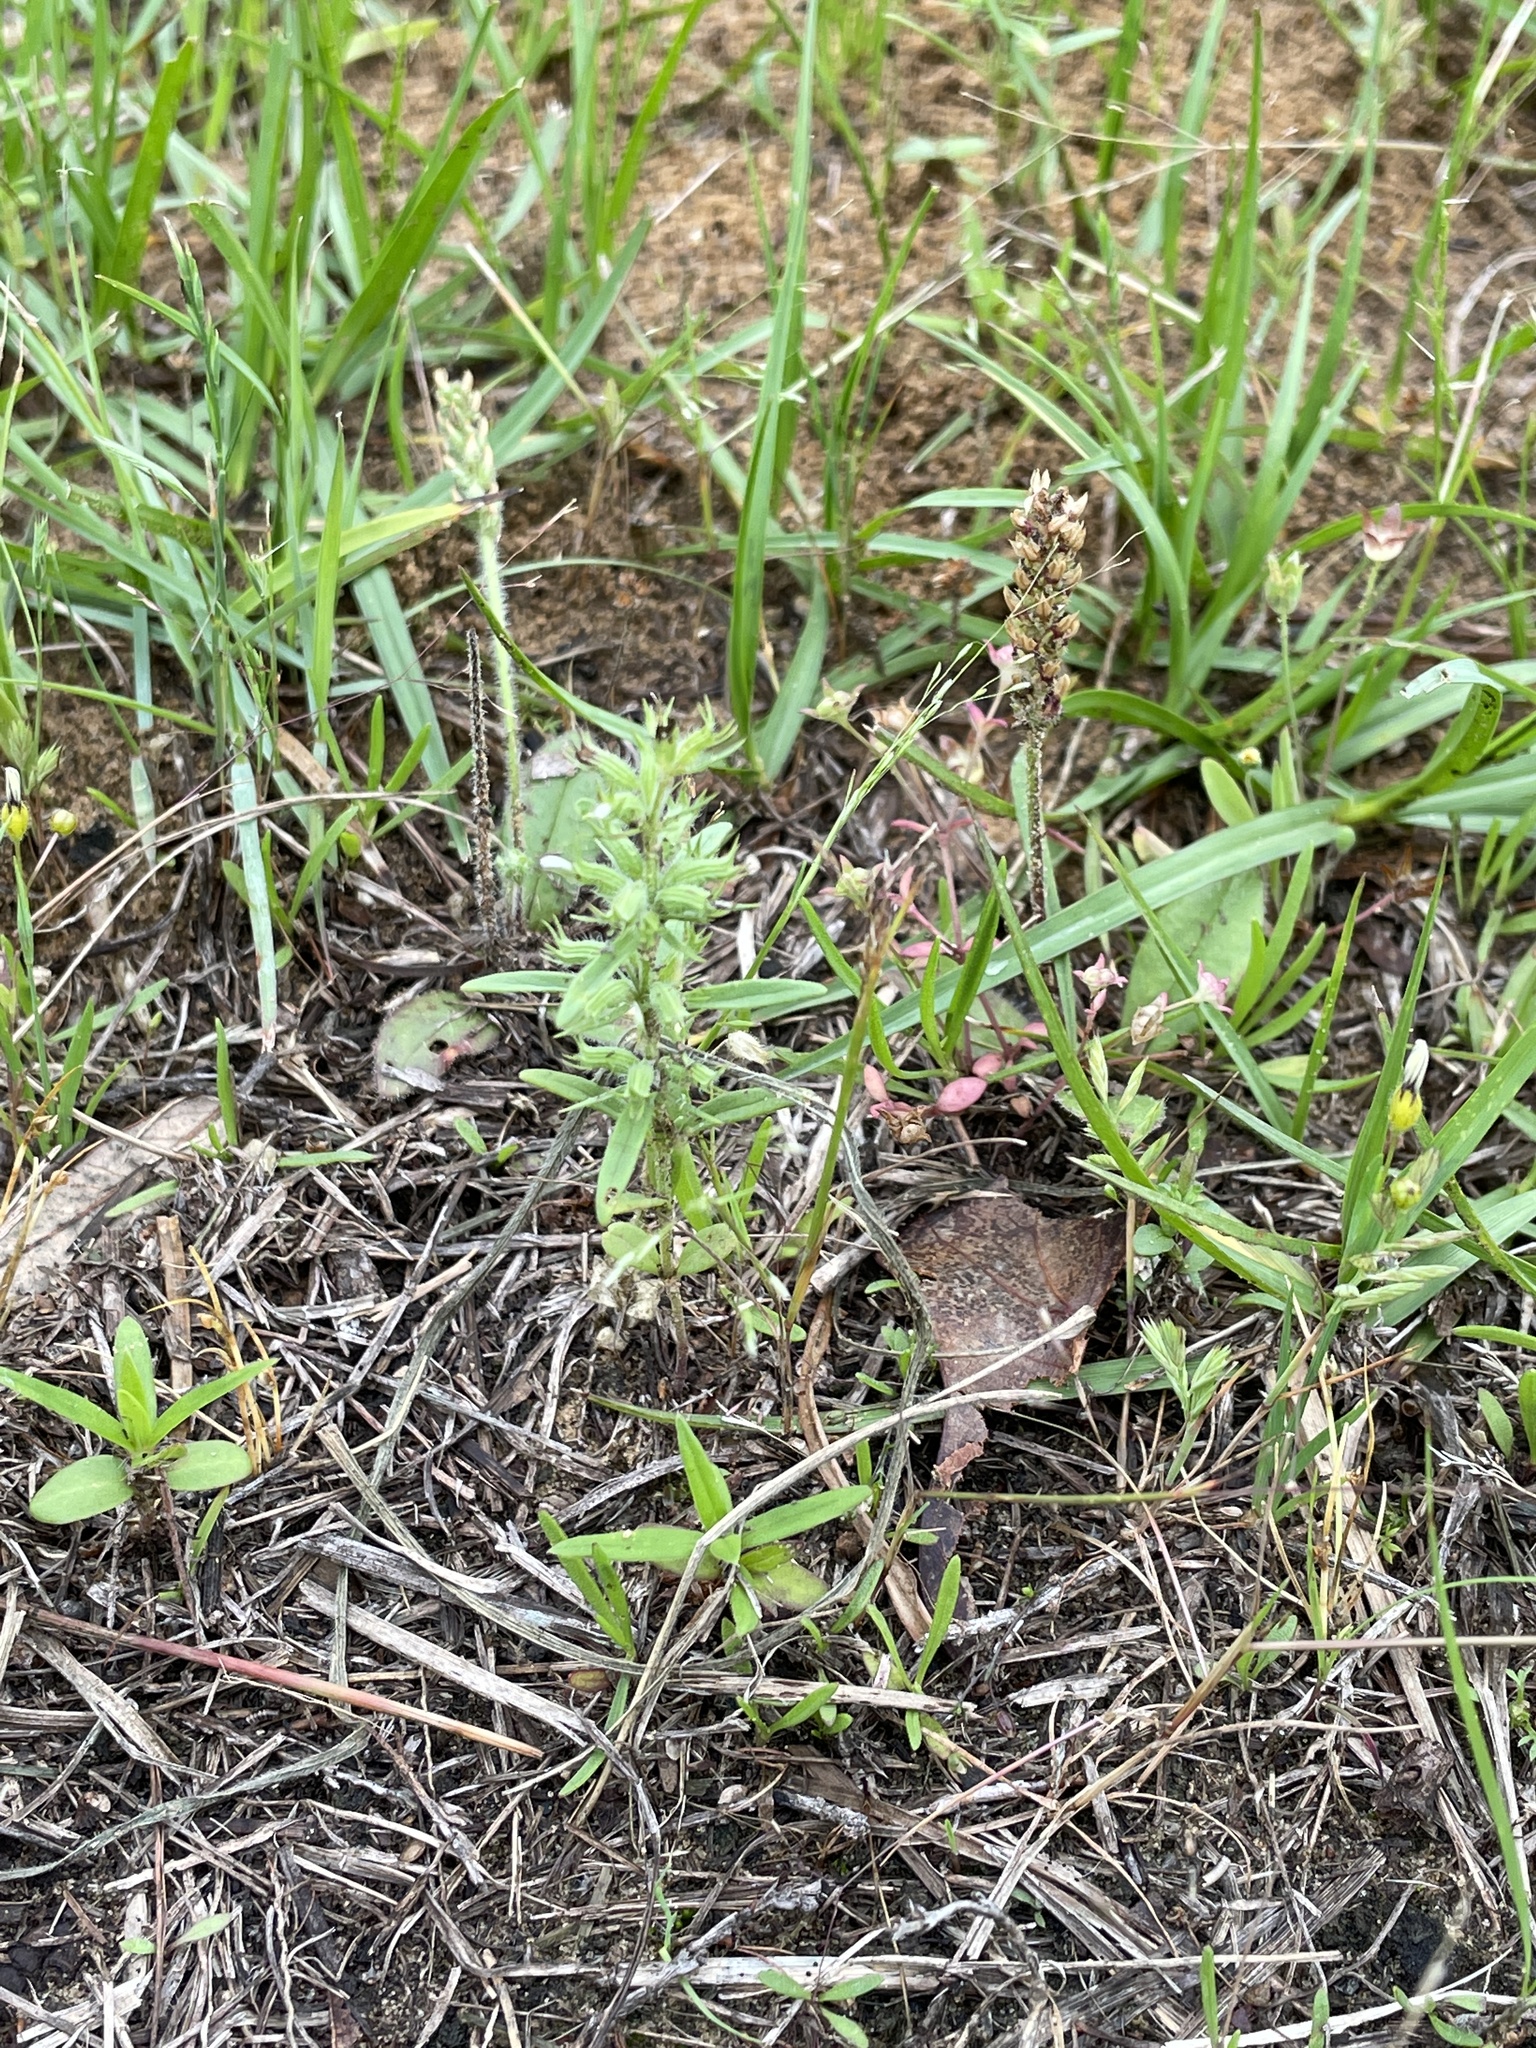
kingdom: Plantae
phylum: Tracheophyta
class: Magnoliopsida
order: Lamiales
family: Lamiaceae
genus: Hedeoma
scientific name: Hedeoma hispida
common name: Mock pennyroyal
